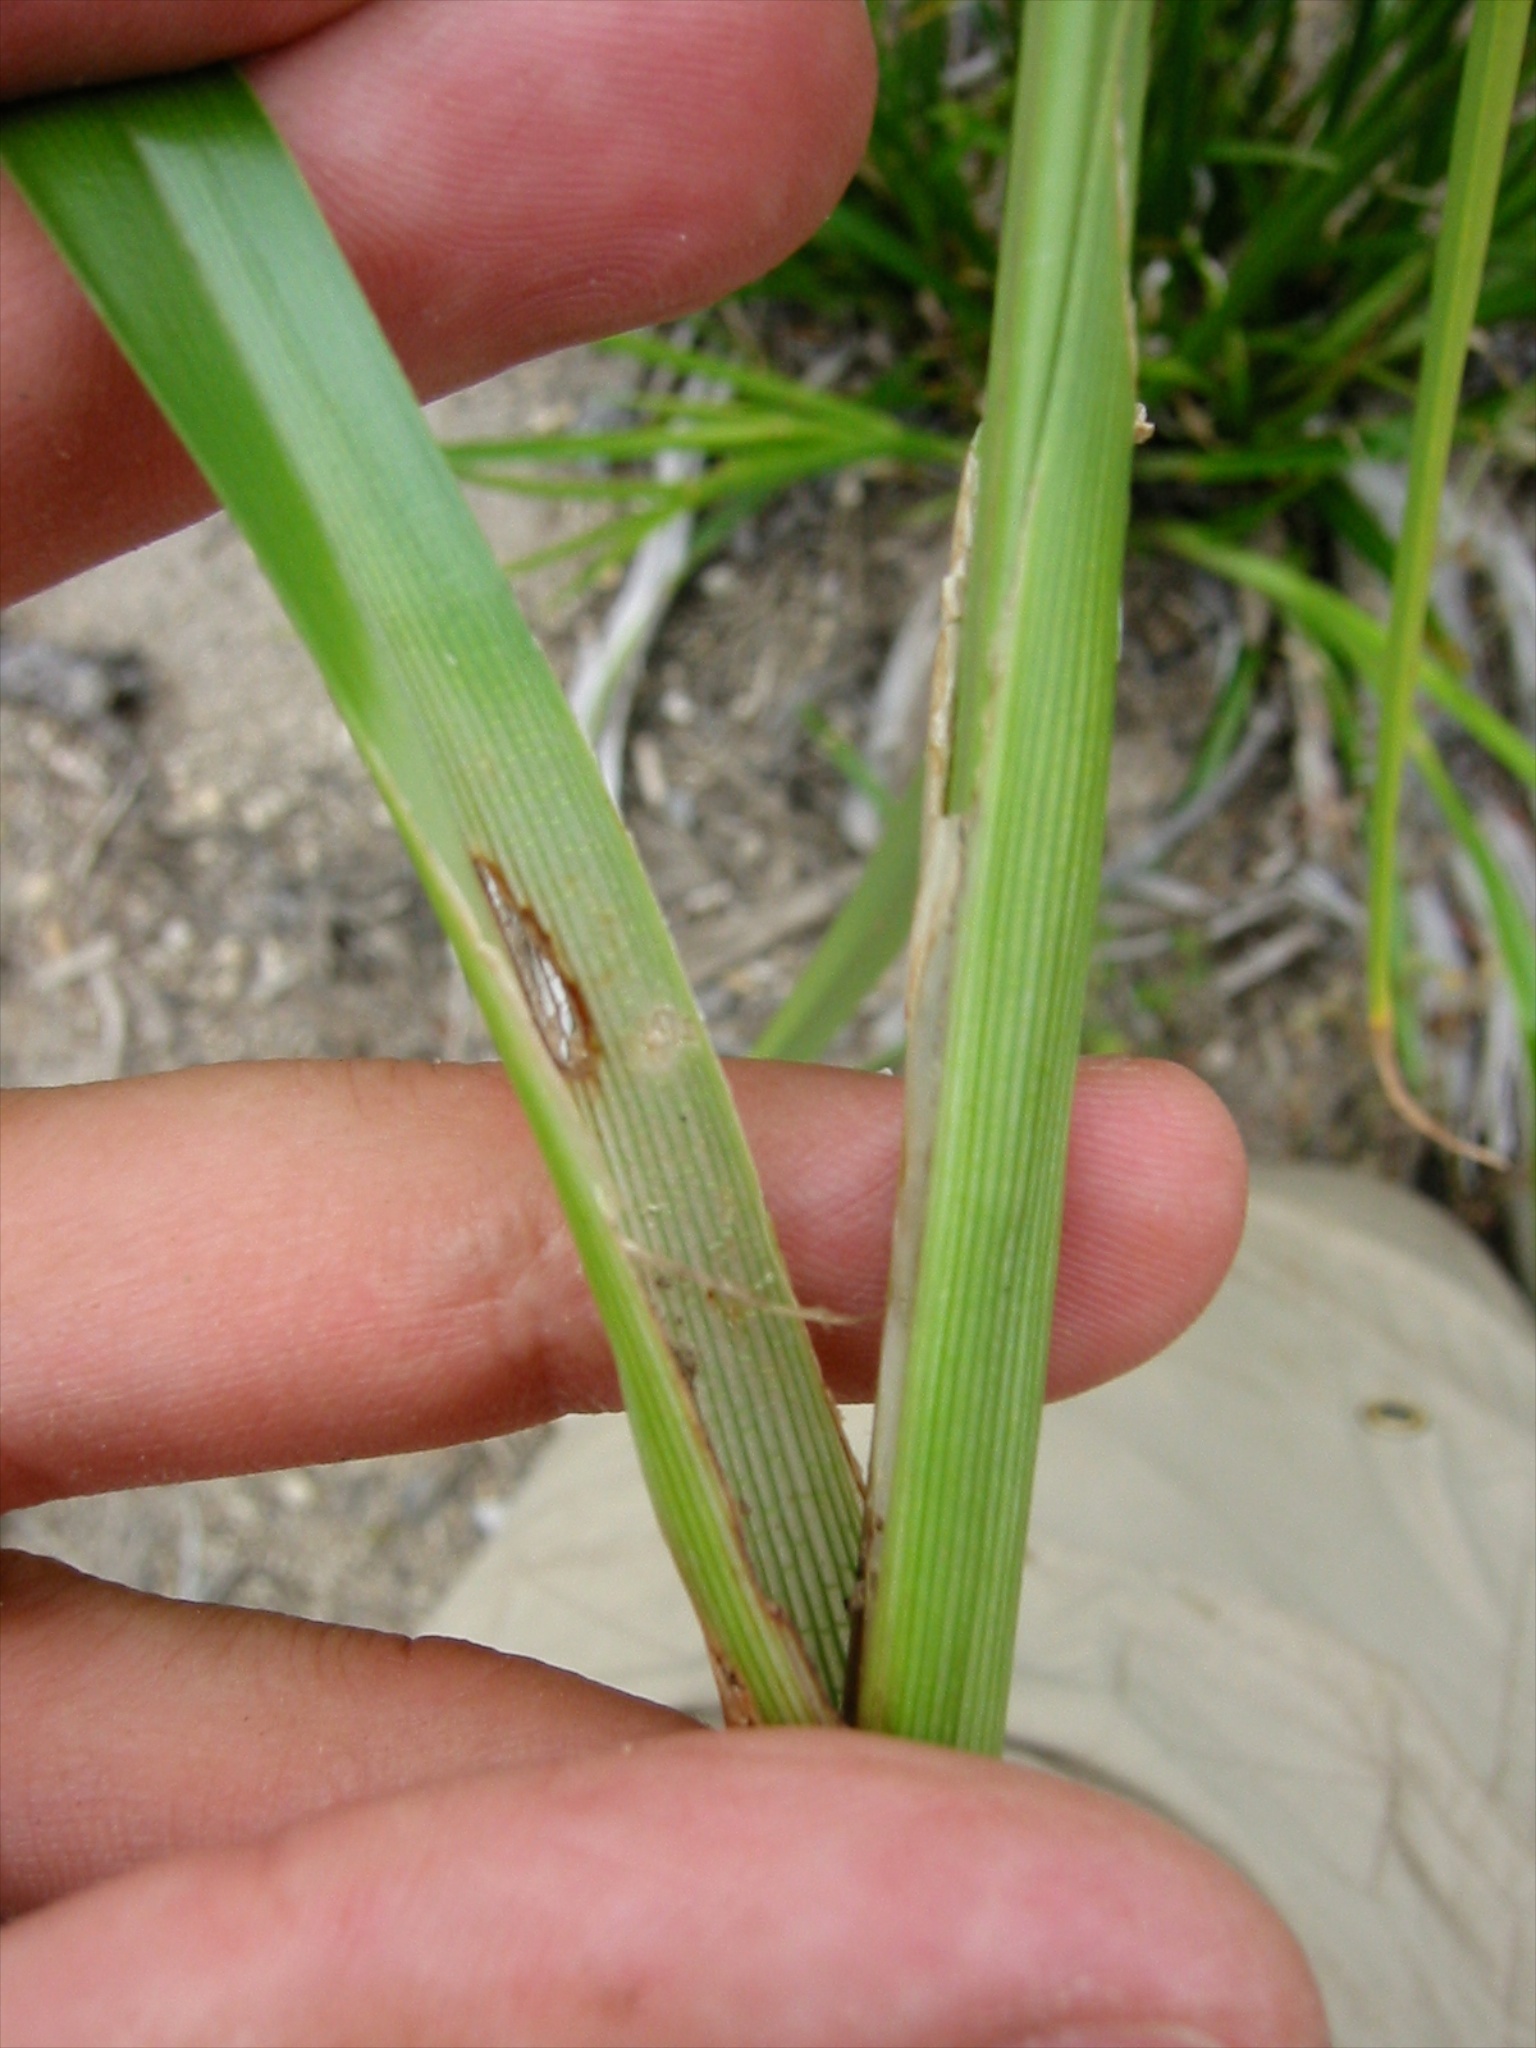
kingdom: Plantae
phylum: Tracheophyta
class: Liliopsida
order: Poales
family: Cyperaceae
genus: Cyperus
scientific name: Cyperus eragrostis
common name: Tall flatsedge
